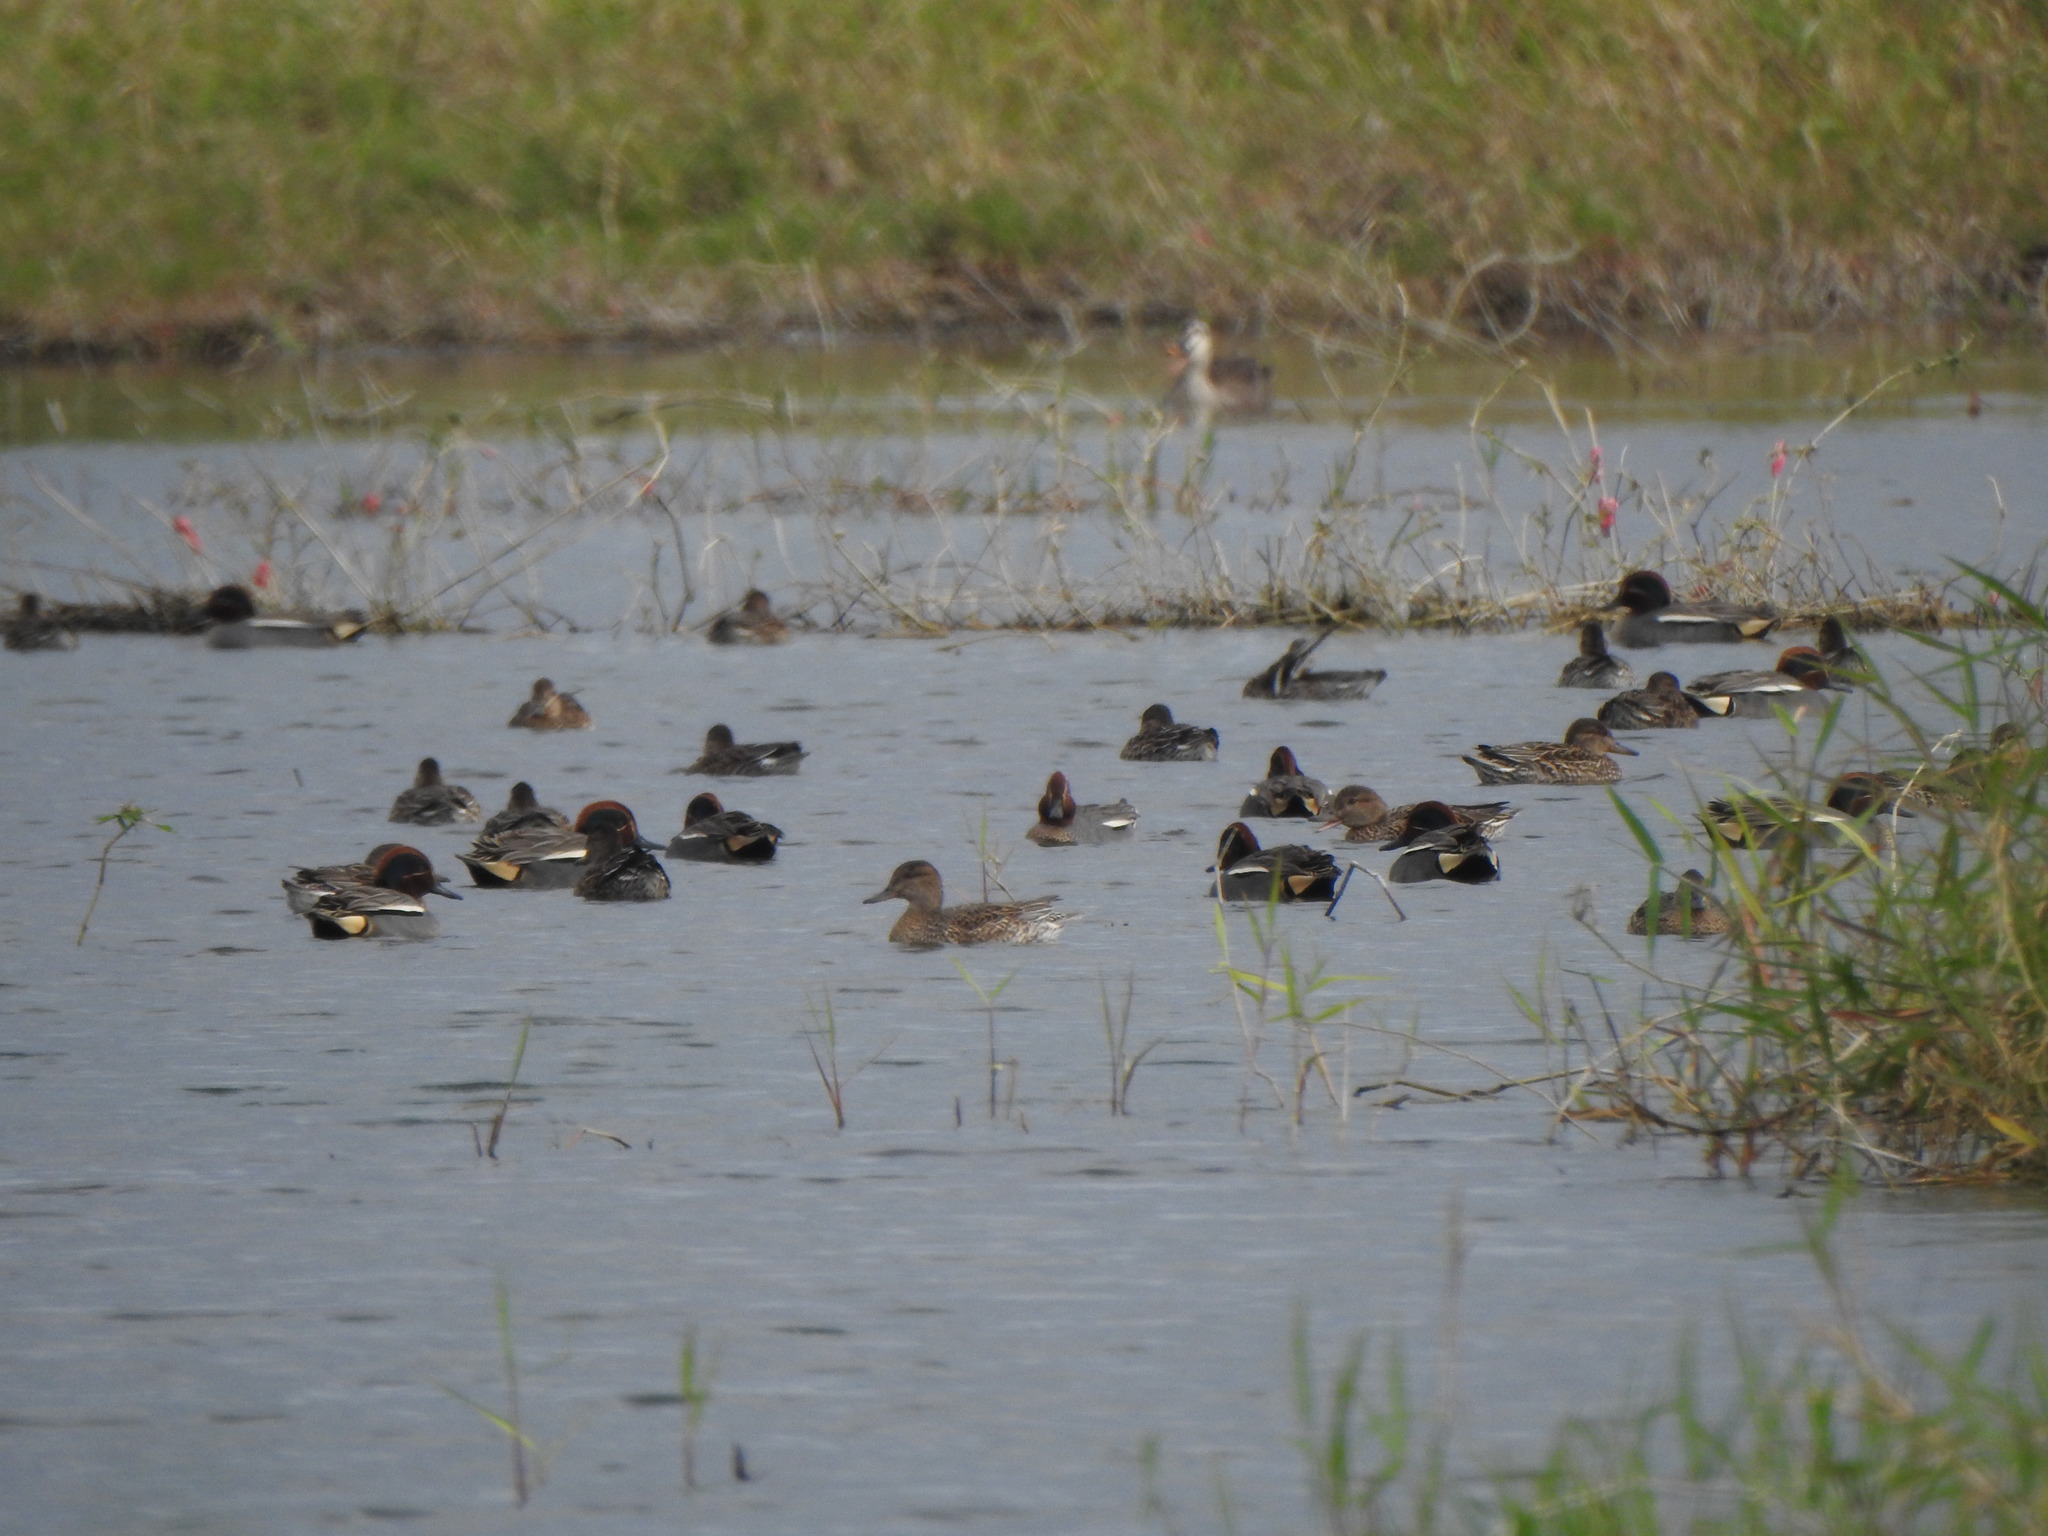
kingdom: Animalia
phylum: Chordata
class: Aves
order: Anseriformes
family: Anatidae
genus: Anas
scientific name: Anas crecca
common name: Eurasian teal
